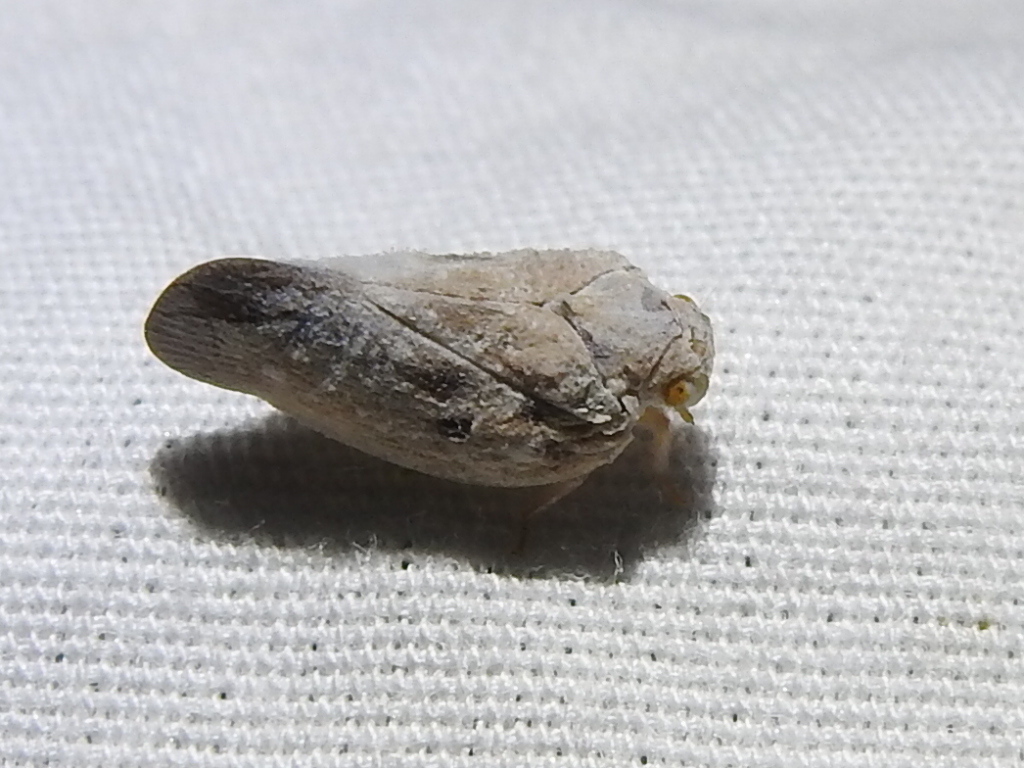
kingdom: Animalia
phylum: Arthropoda
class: Insecta
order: Hemiptera
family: Flatidae
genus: Metcalfa
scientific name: Metcalfa pruinosa
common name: Citrus flatid planthopper
